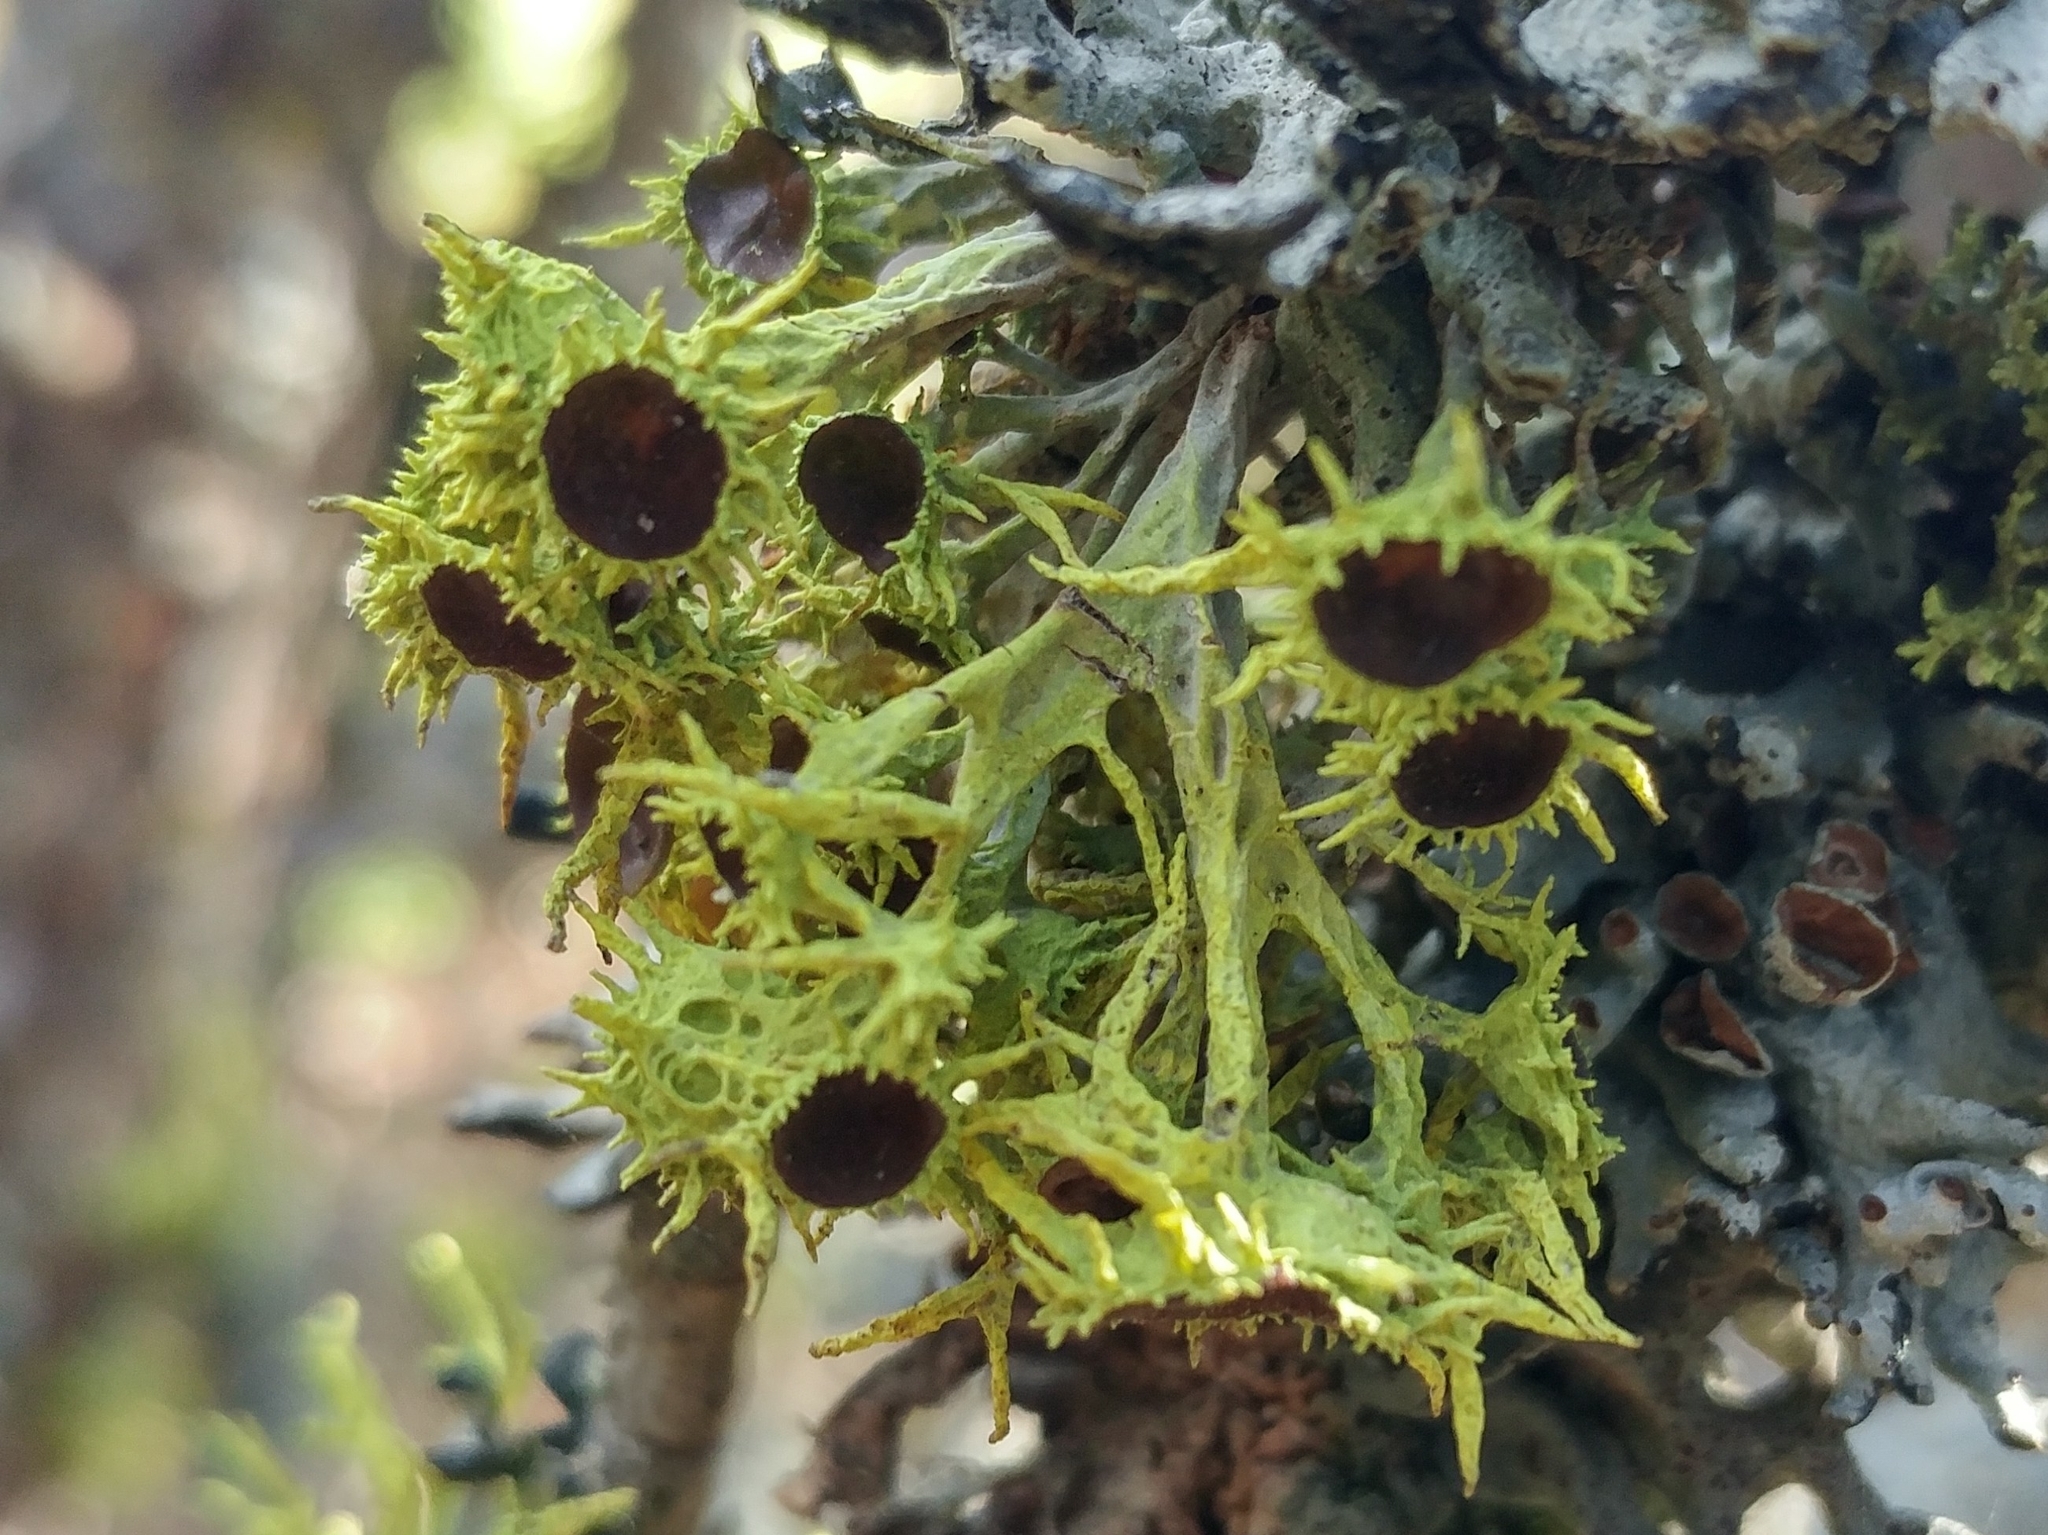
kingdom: Fungi
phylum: Ascomycota
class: Lecanoromycetes
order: Lecanorales
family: Parmeliaceae
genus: Letharia
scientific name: Letharia columbiana
